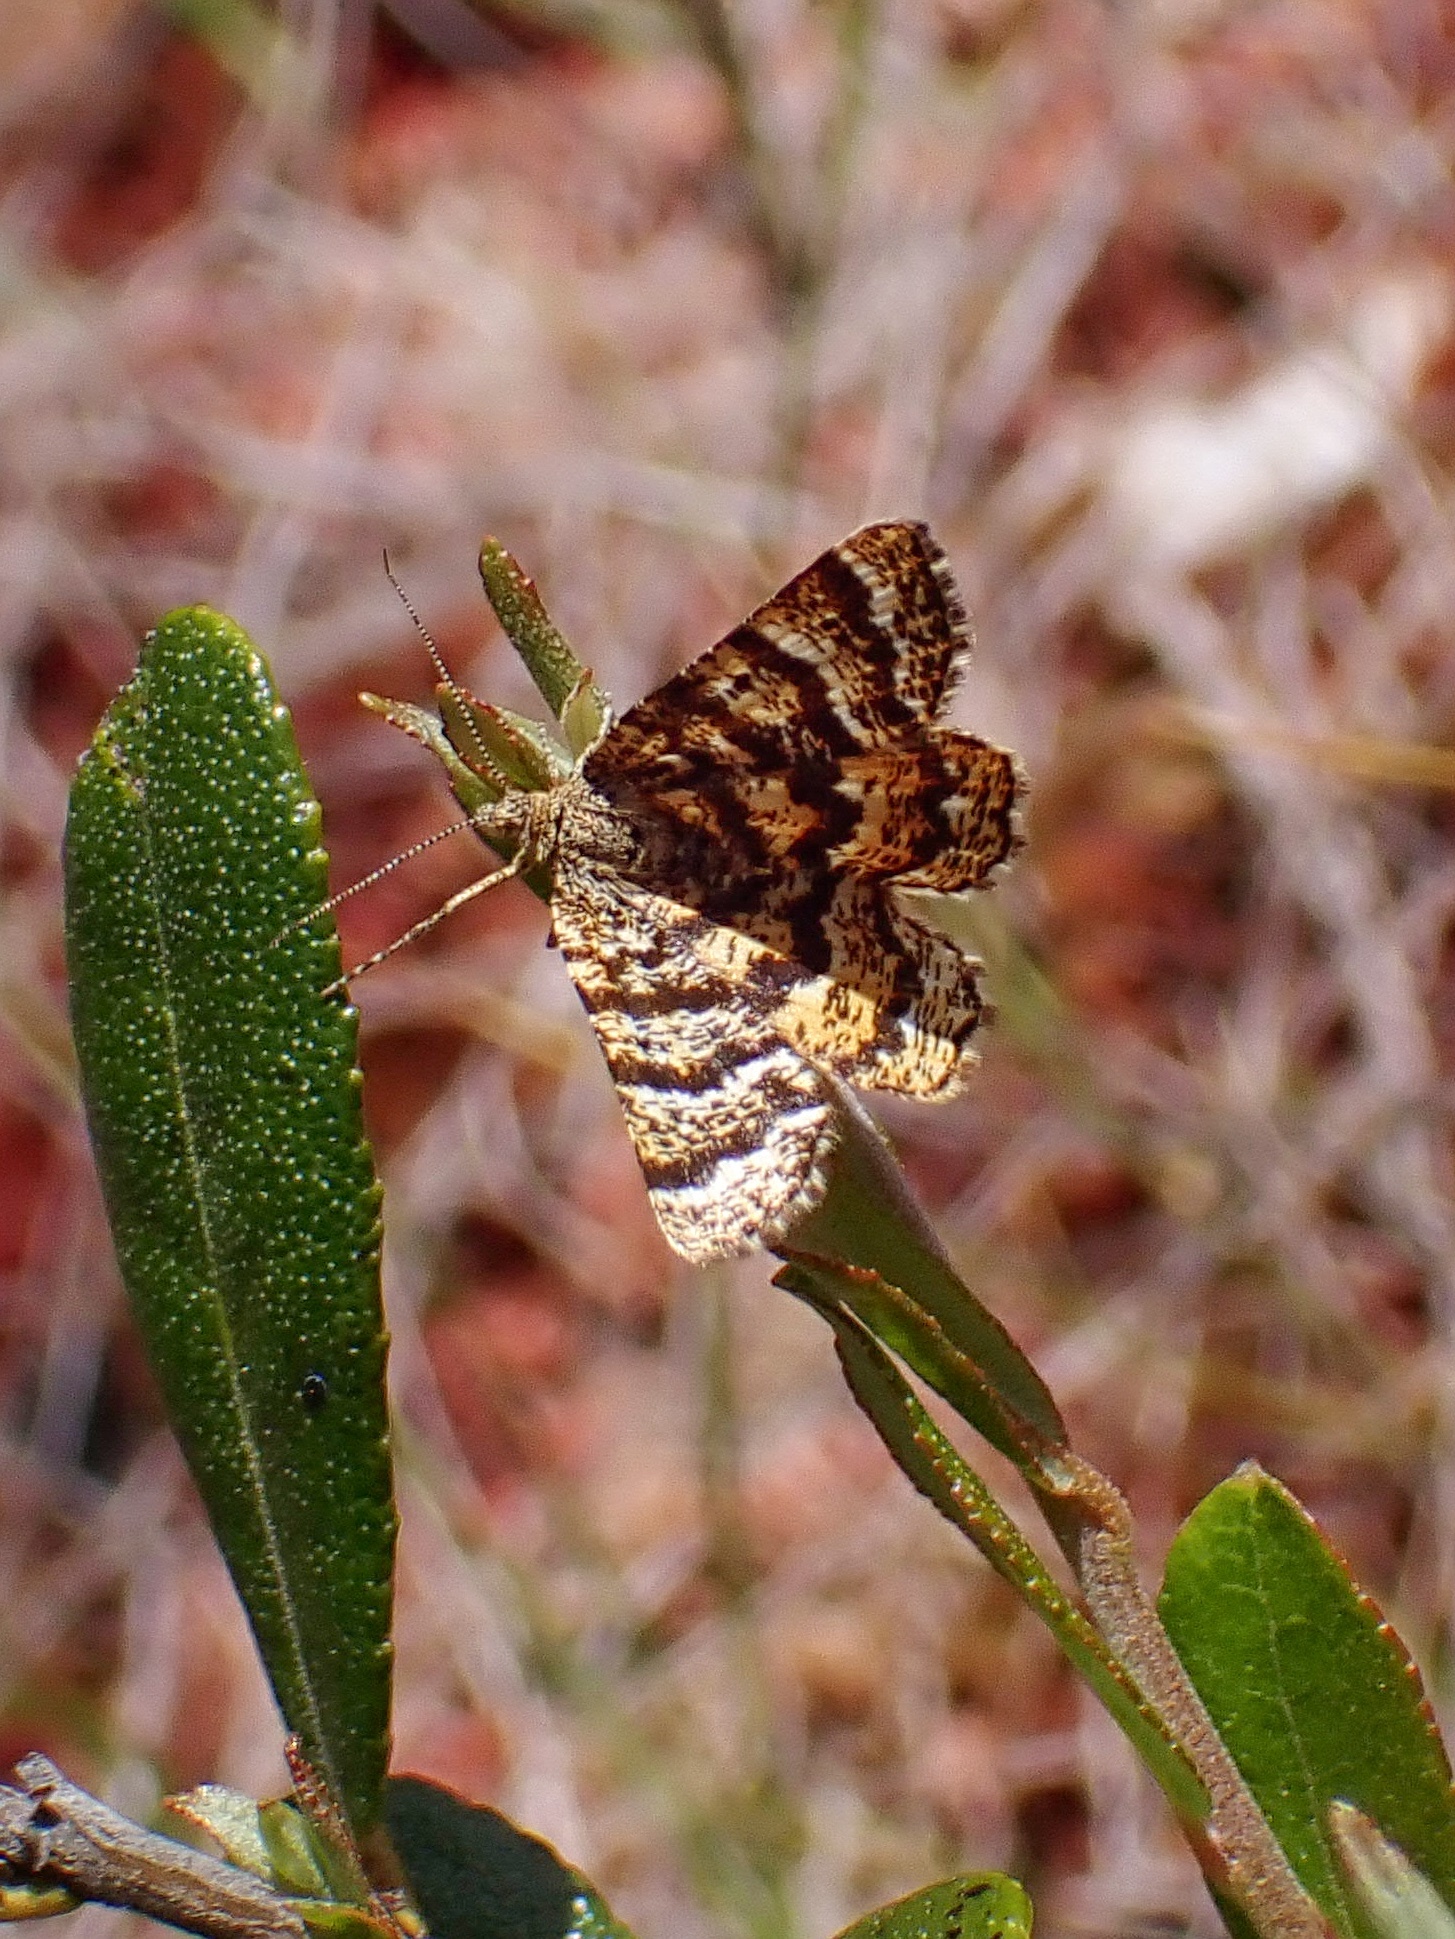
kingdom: Animalia
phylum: Arthropoda
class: Insecta
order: Lepidoptera
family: Geometridae
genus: Macaria
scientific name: Macaria truncataria
